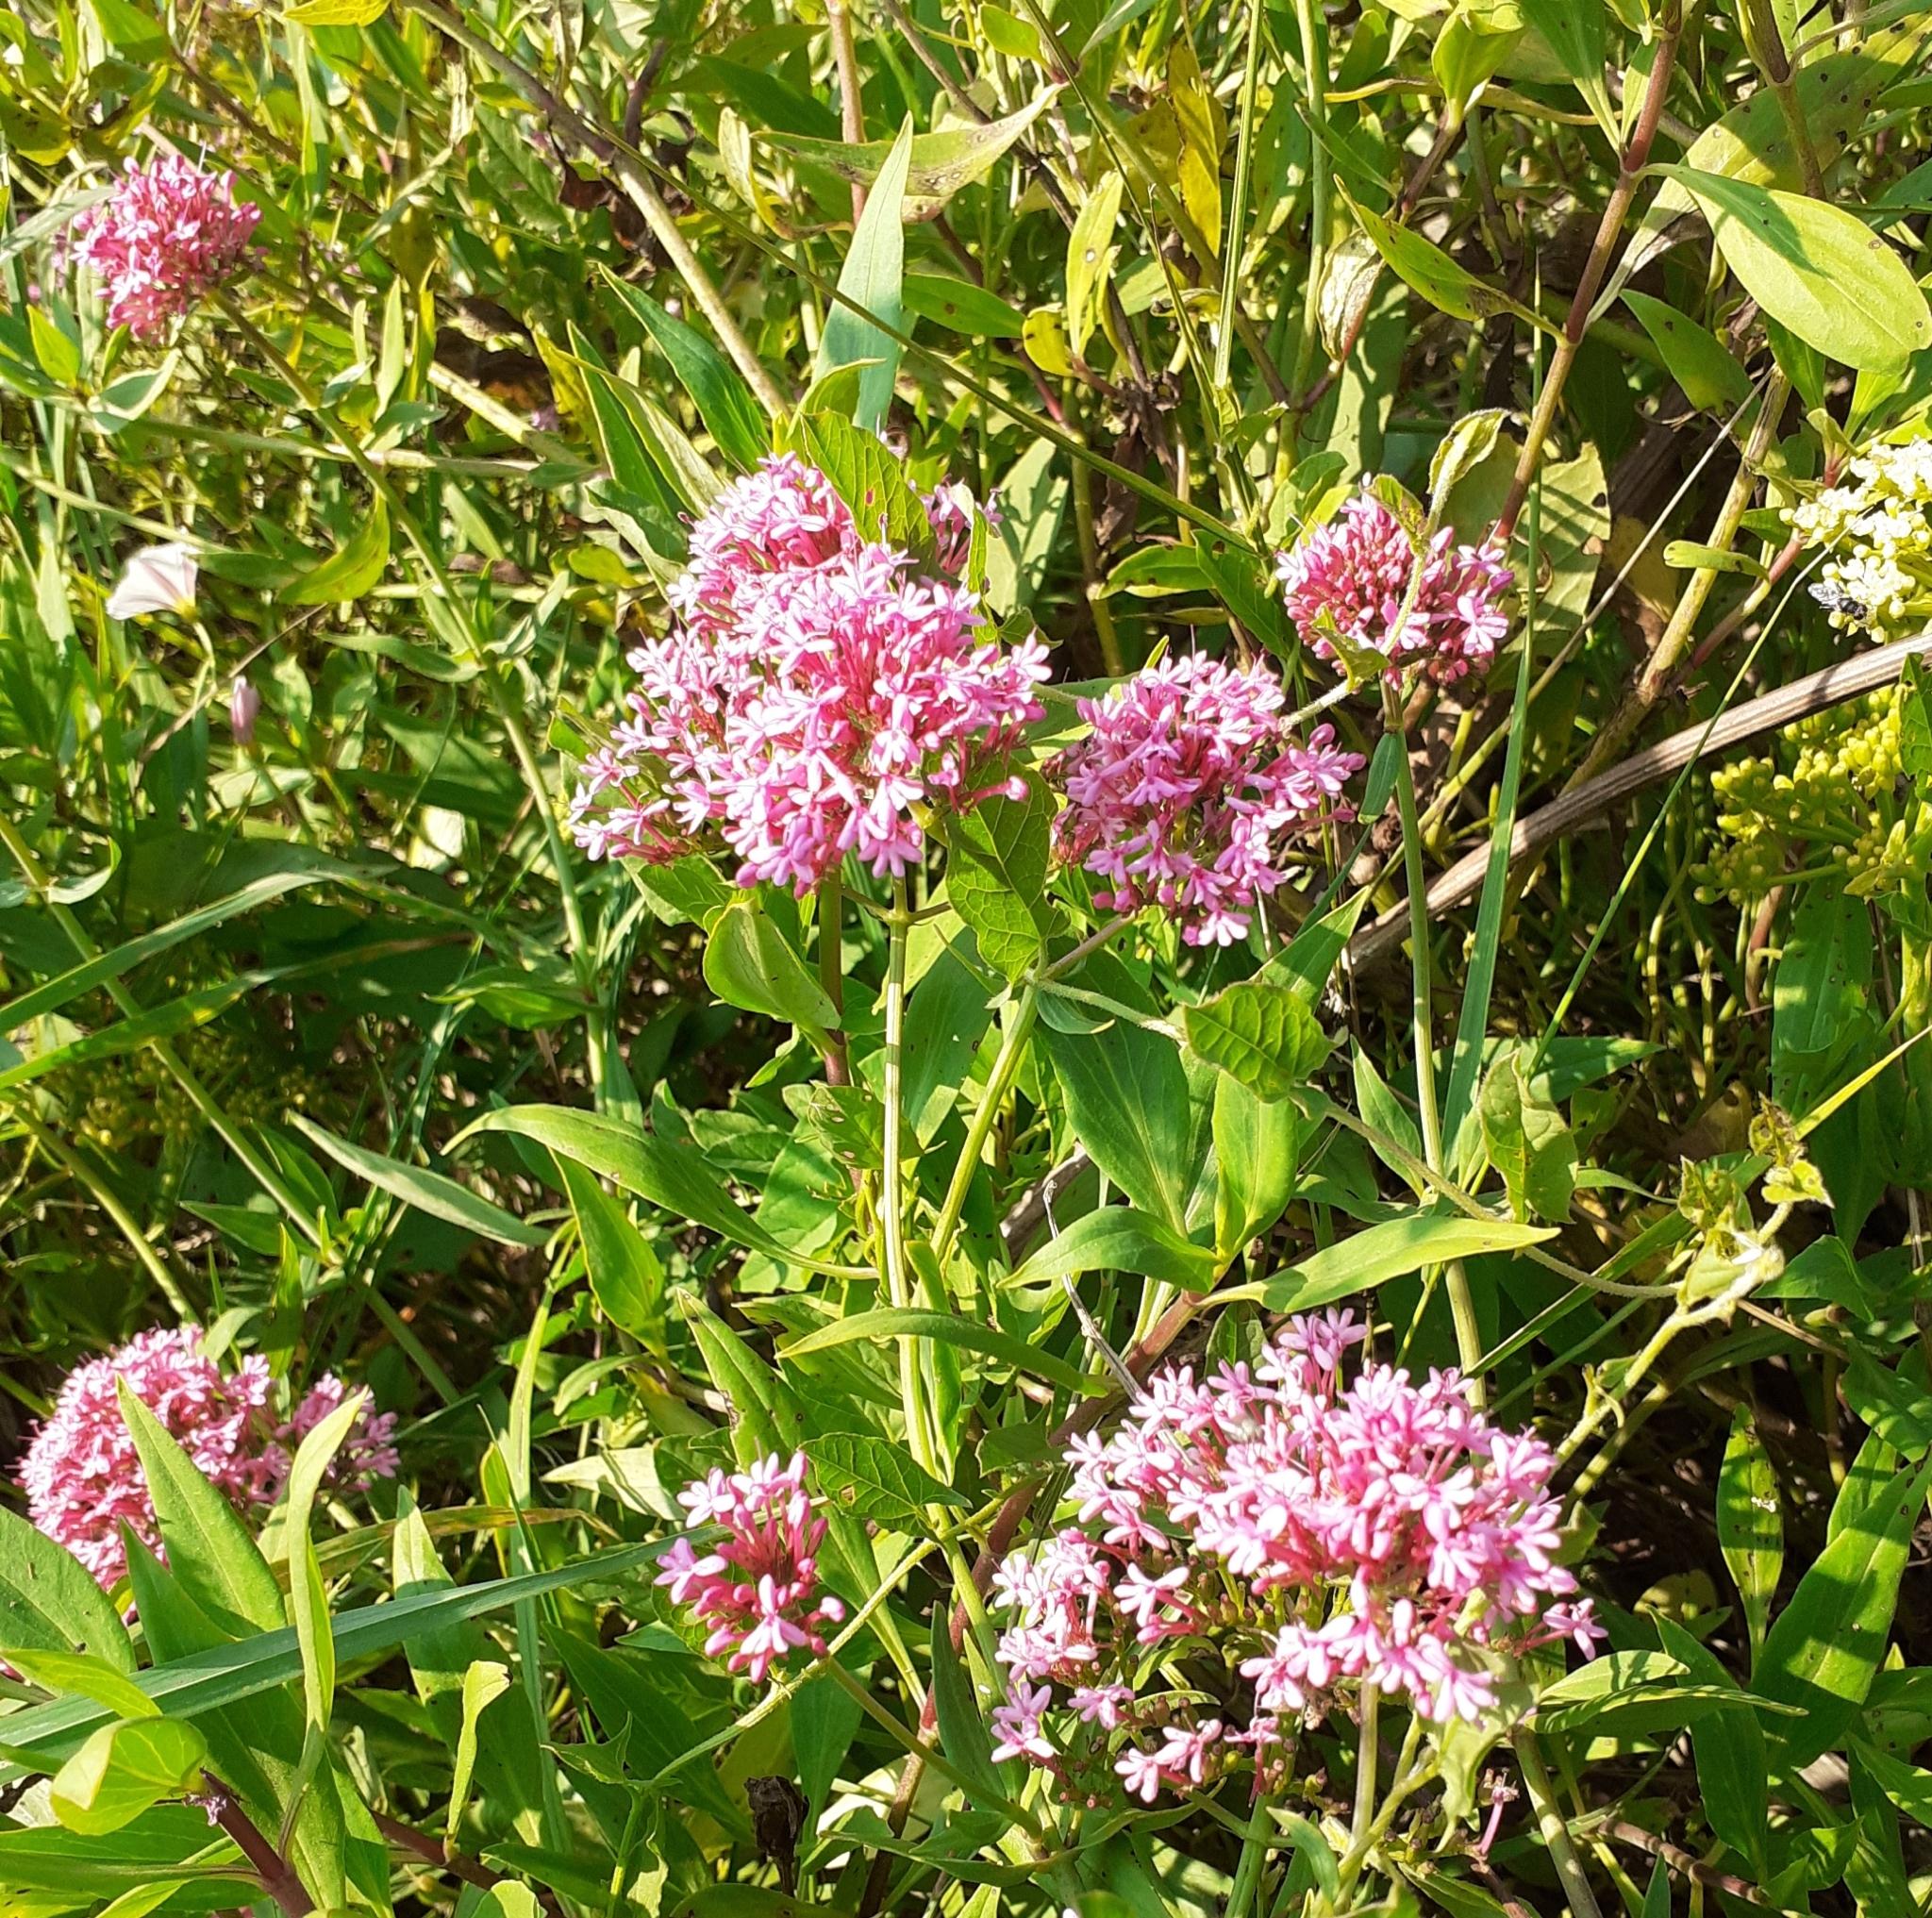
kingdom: Plantae
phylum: Tracheophyta
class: Magnoliopsida
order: Dipsacales
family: Caprifoliaceae
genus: Centranthus
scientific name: Centranthus ruber
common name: Red valerian
